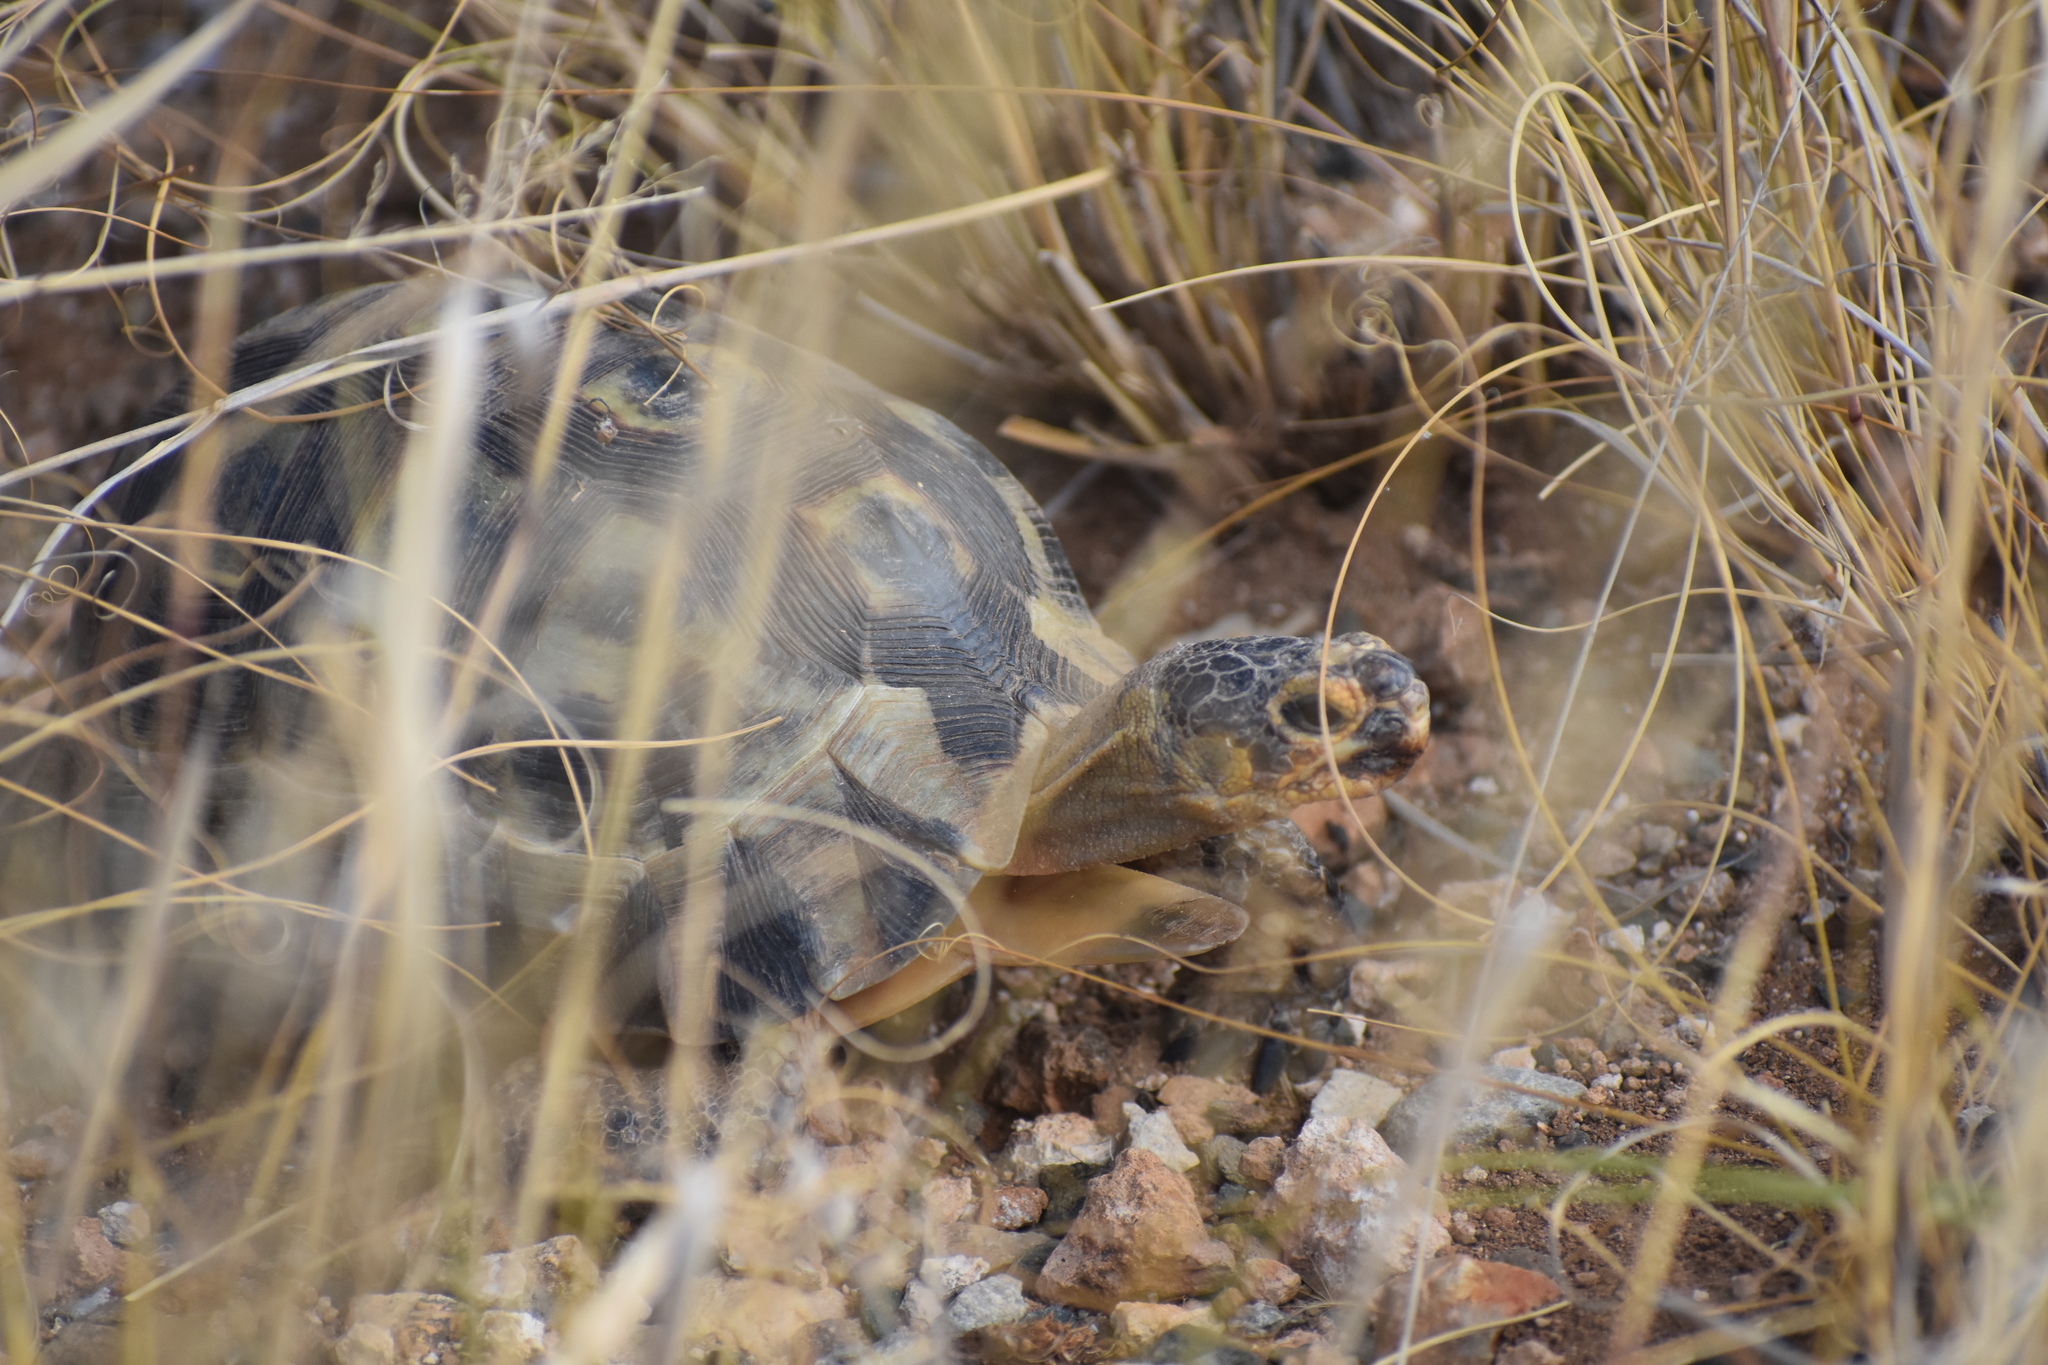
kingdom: Animalia
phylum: Chordata
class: Testudines
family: Testudinidae
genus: Chersina
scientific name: Chersina angulata
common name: South african bowsprit tortoise
